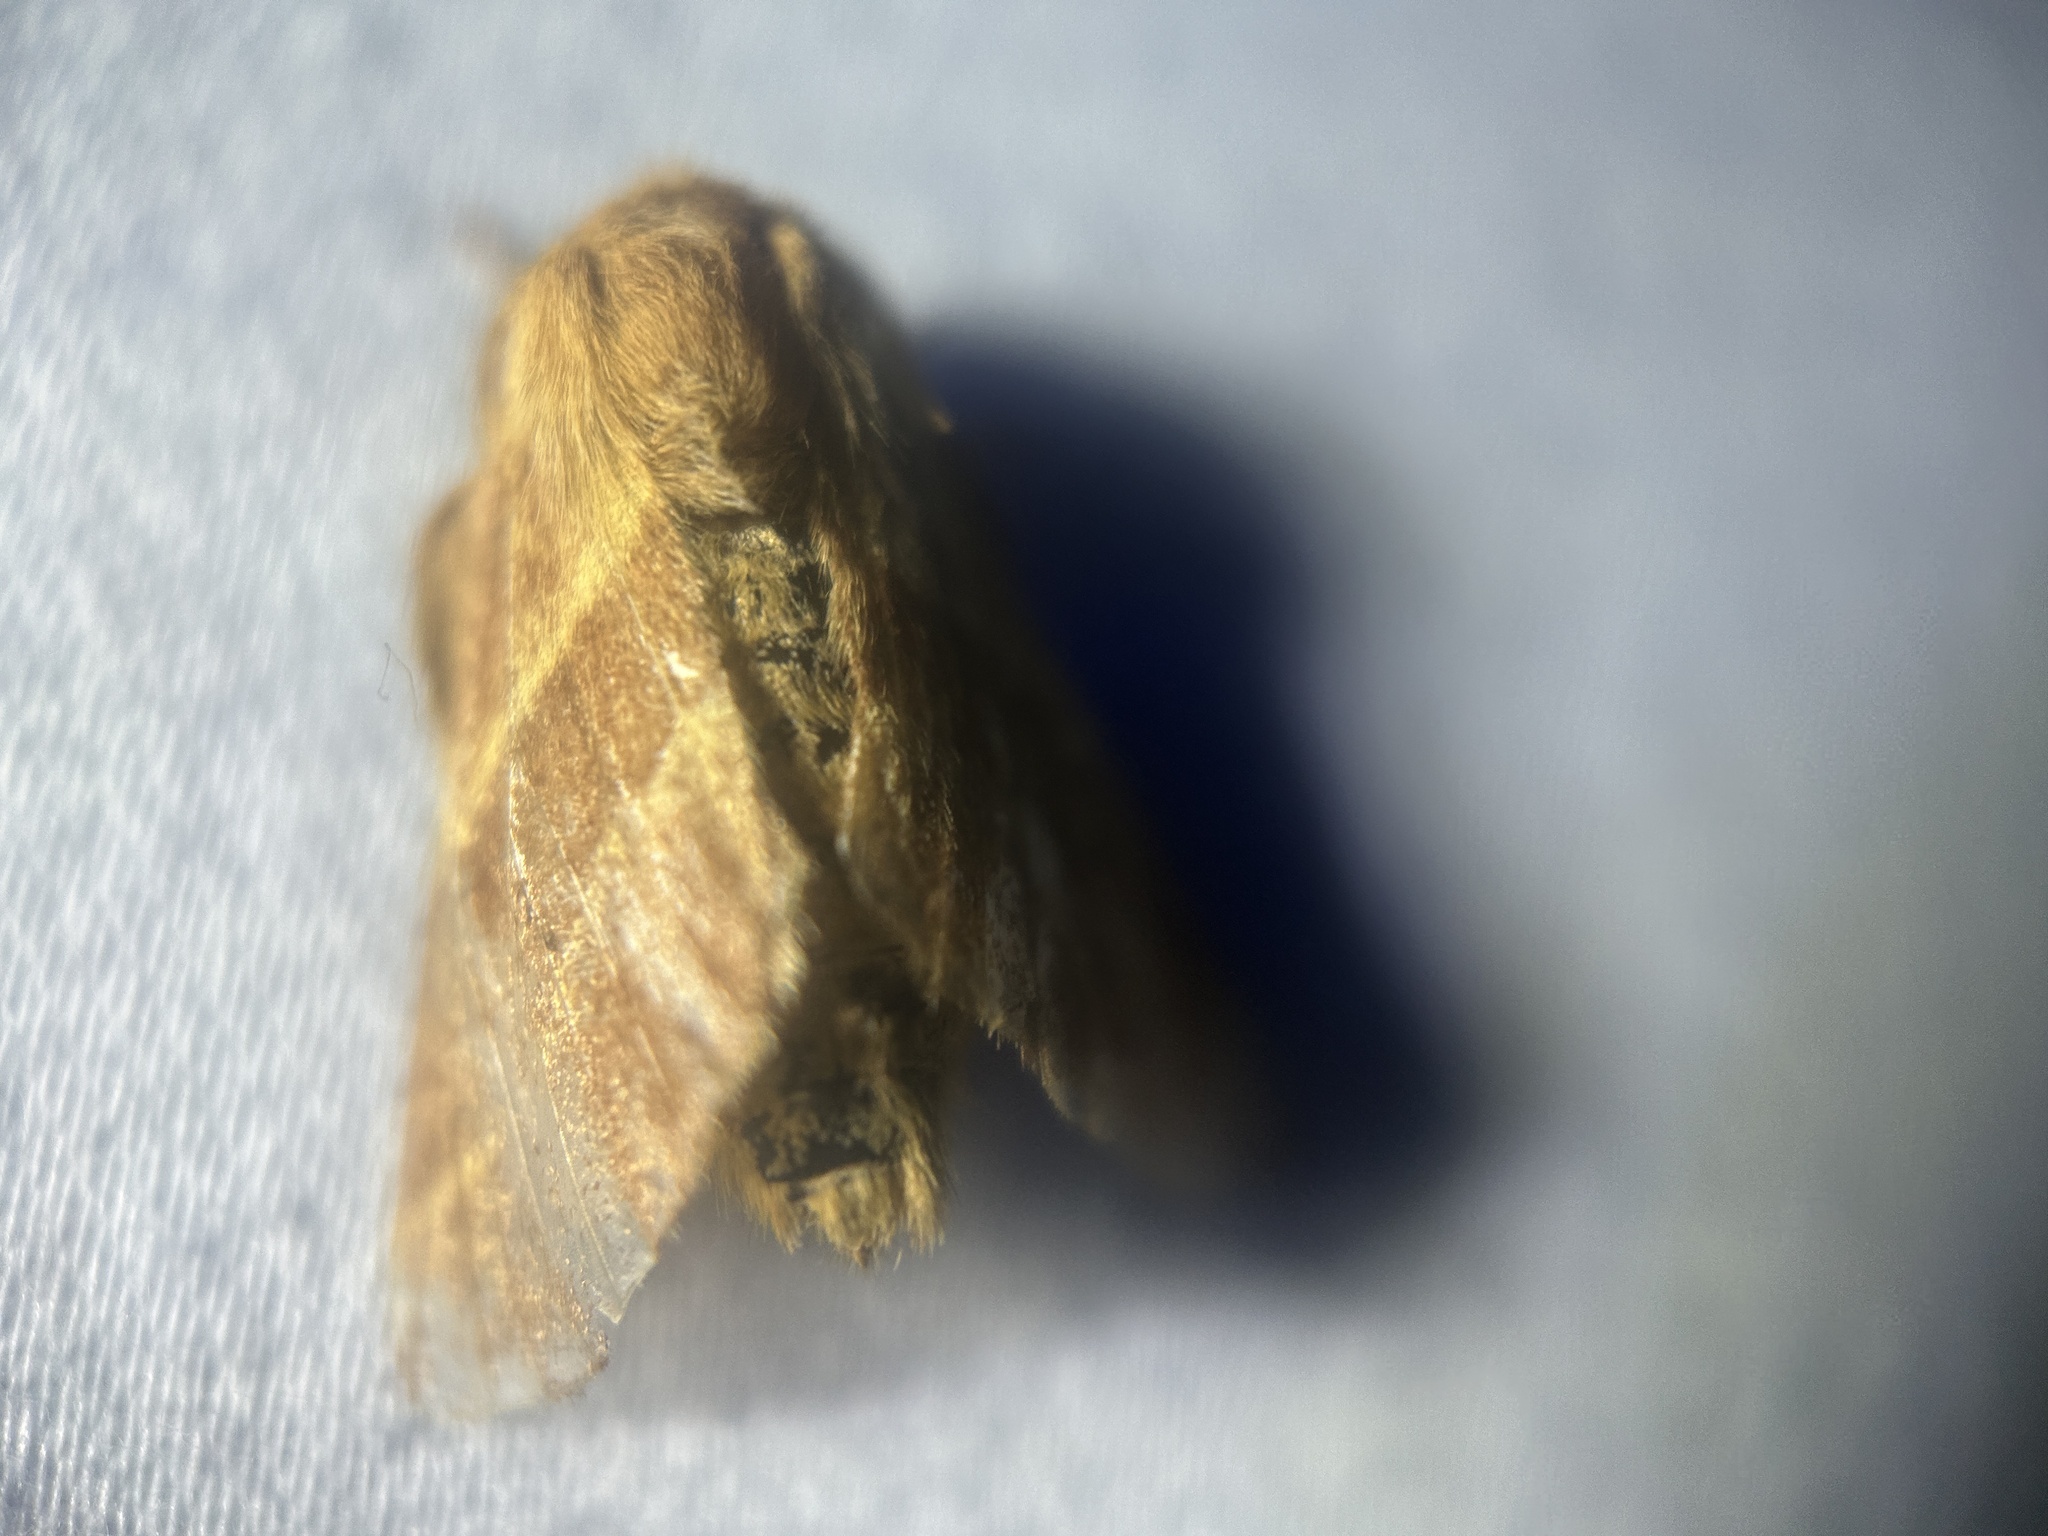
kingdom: Animalia
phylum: Arthropoda
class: Insecta
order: Lepidoptera
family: Lasiocampidae
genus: Malacosoma
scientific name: Malacosoma americana
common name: Eastern tent caterpillar moth
